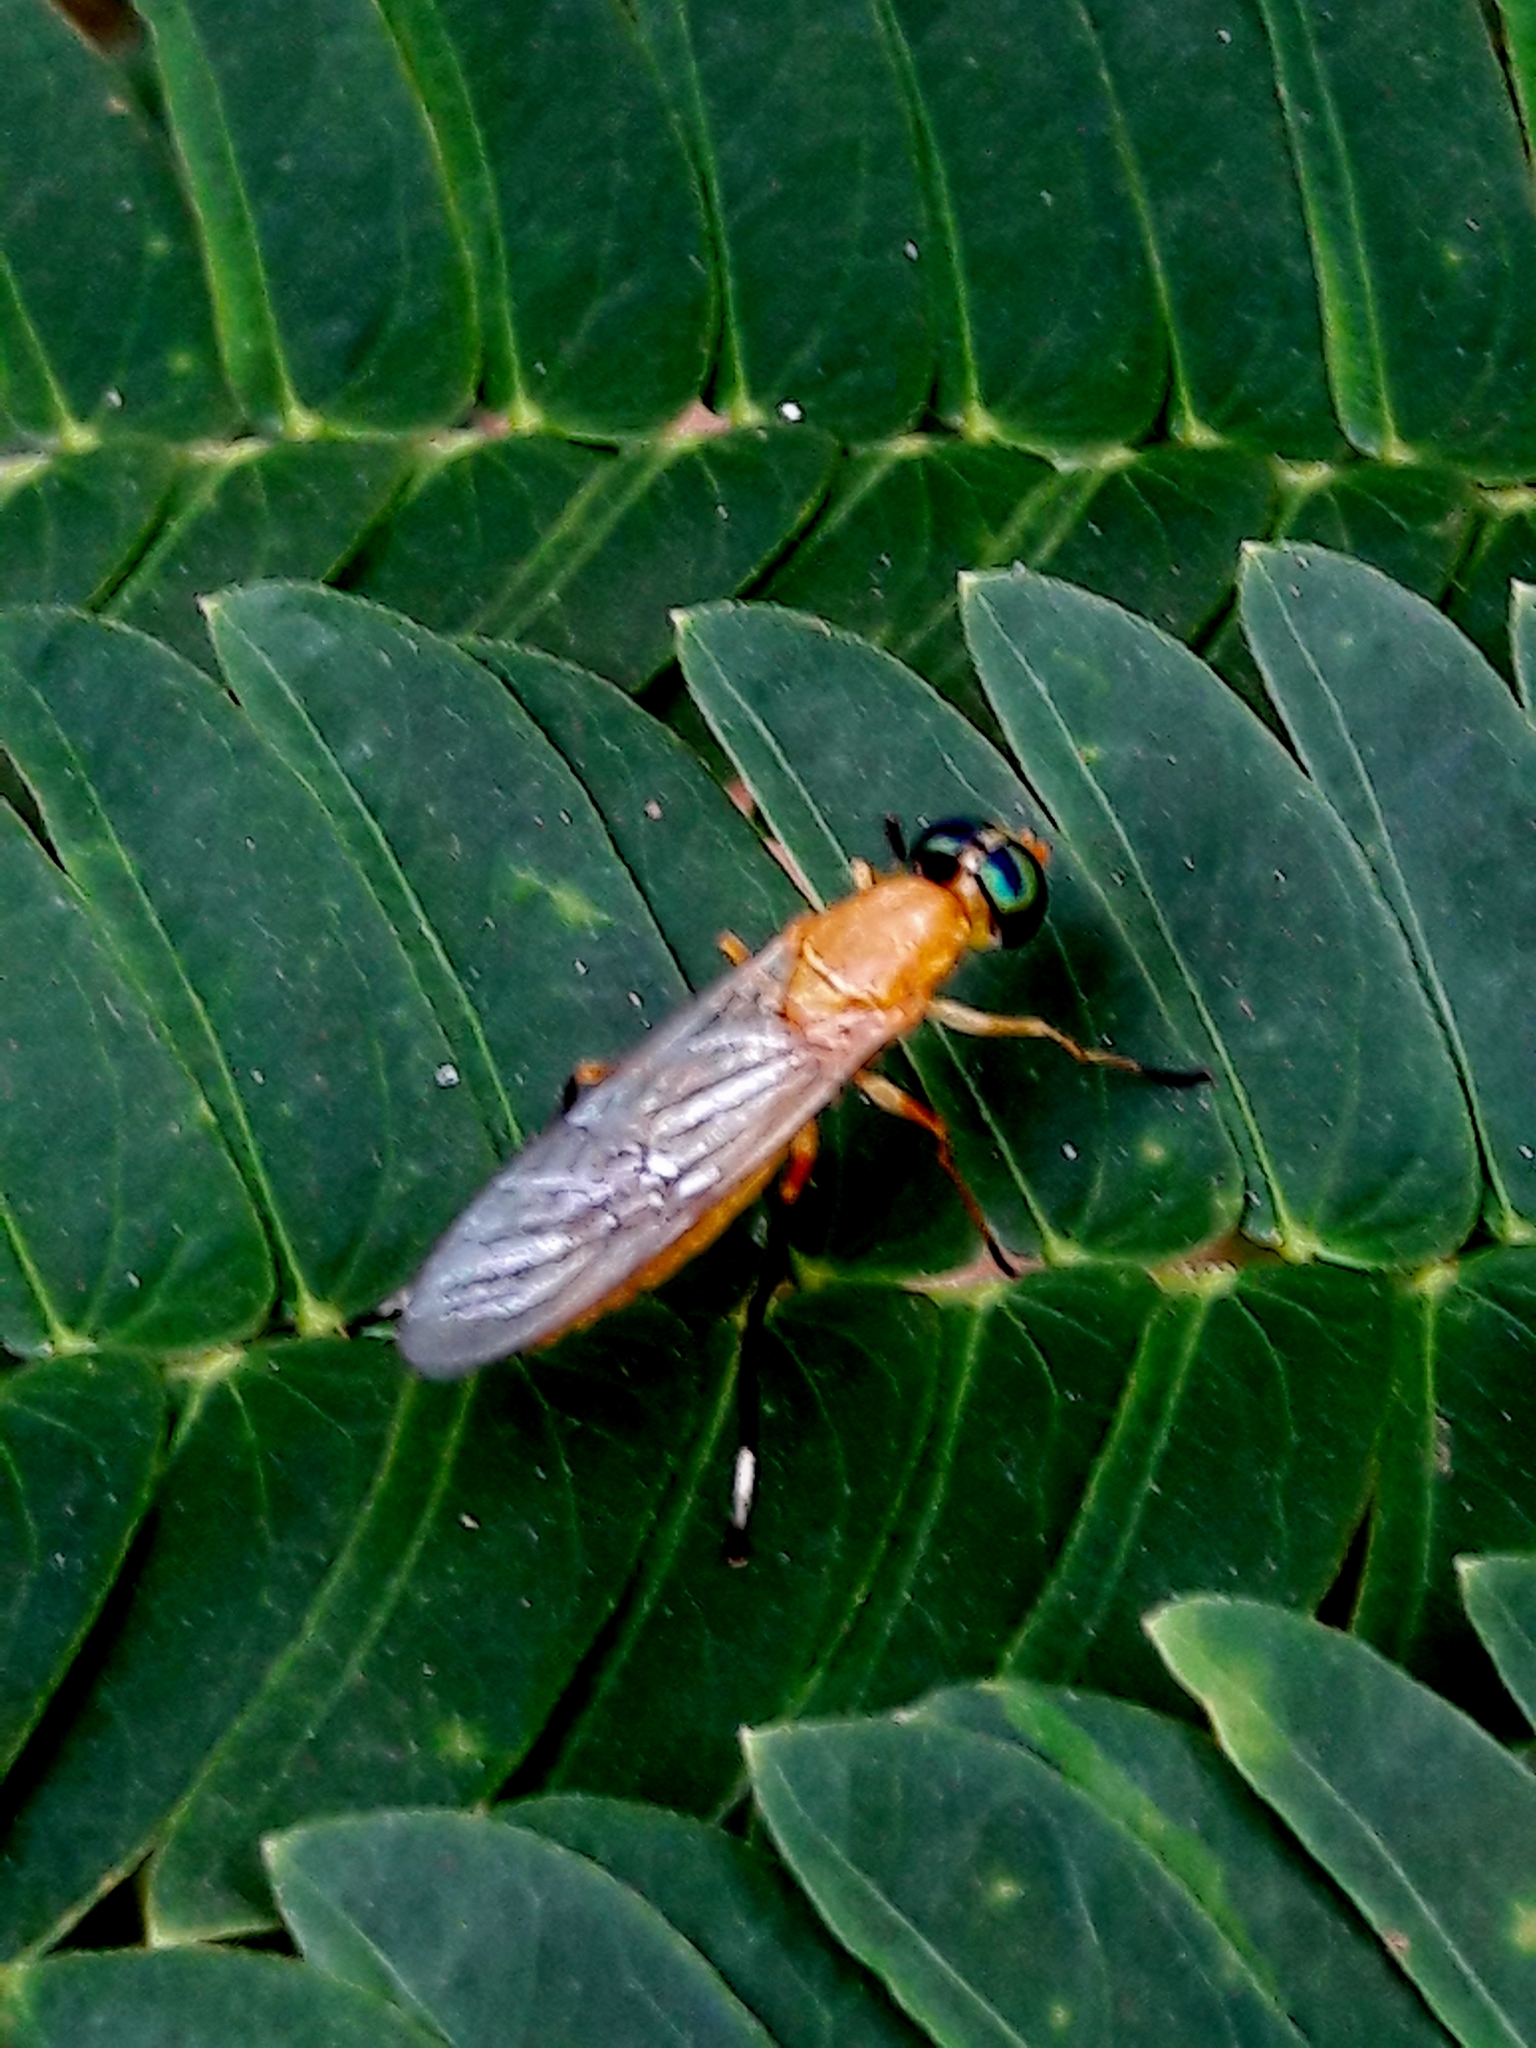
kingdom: Animalia
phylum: Arthropoda
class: Insecta
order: Diptera
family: Stratiomyidae
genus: Ptecticus
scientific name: Ptecticus testaceus
